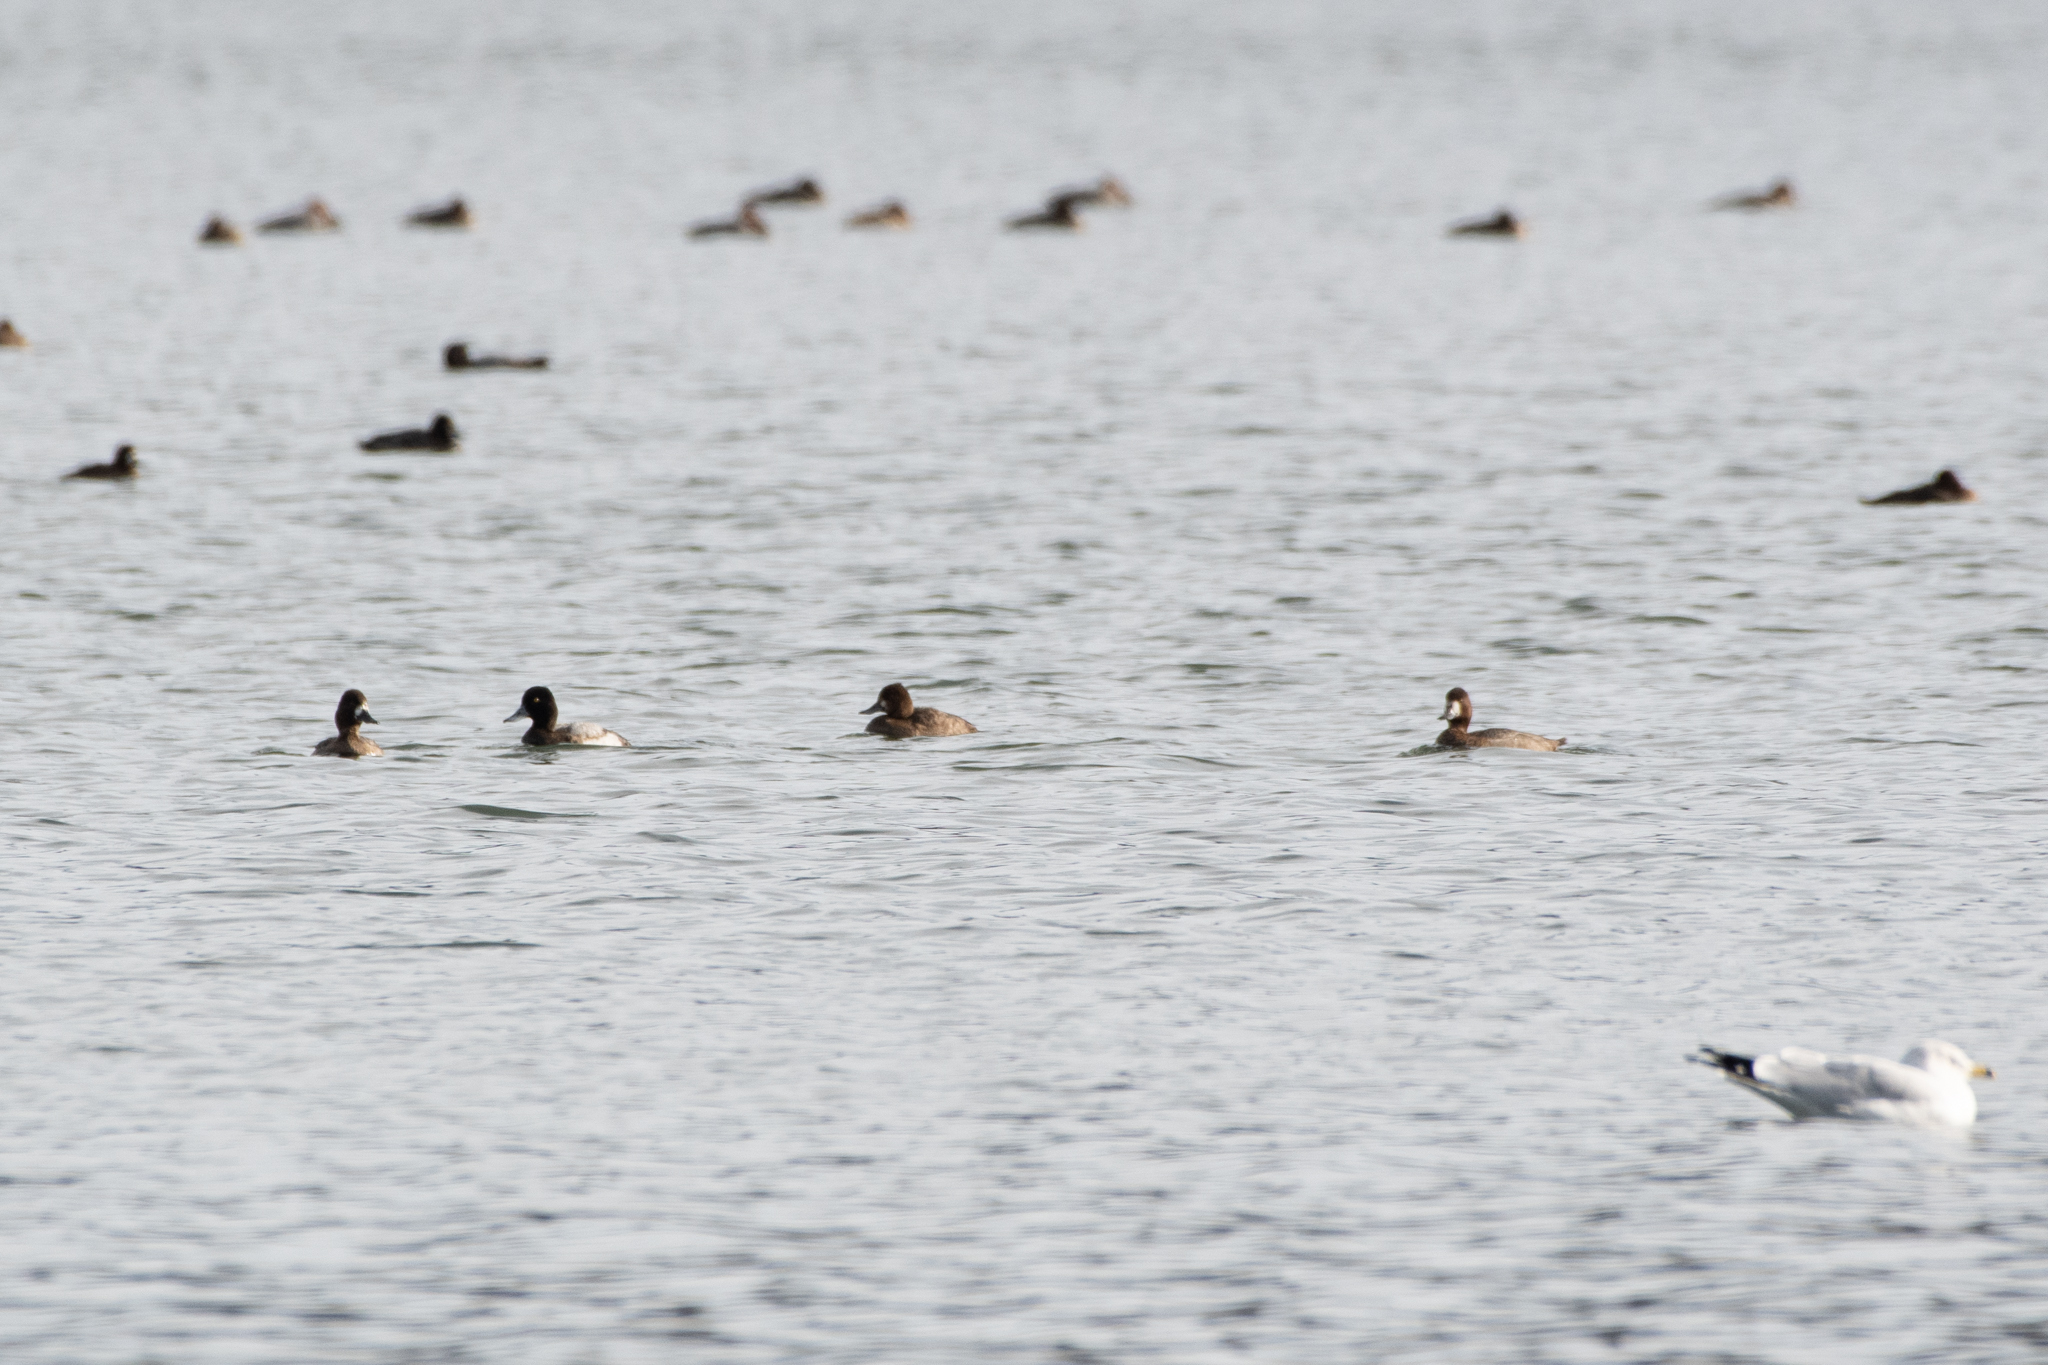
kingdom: Animalia
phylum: Chordata
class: Aves
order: Anseriformes
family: Anatidae
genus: Aythya
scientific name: Aythya affinis
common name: Lesser scaup
